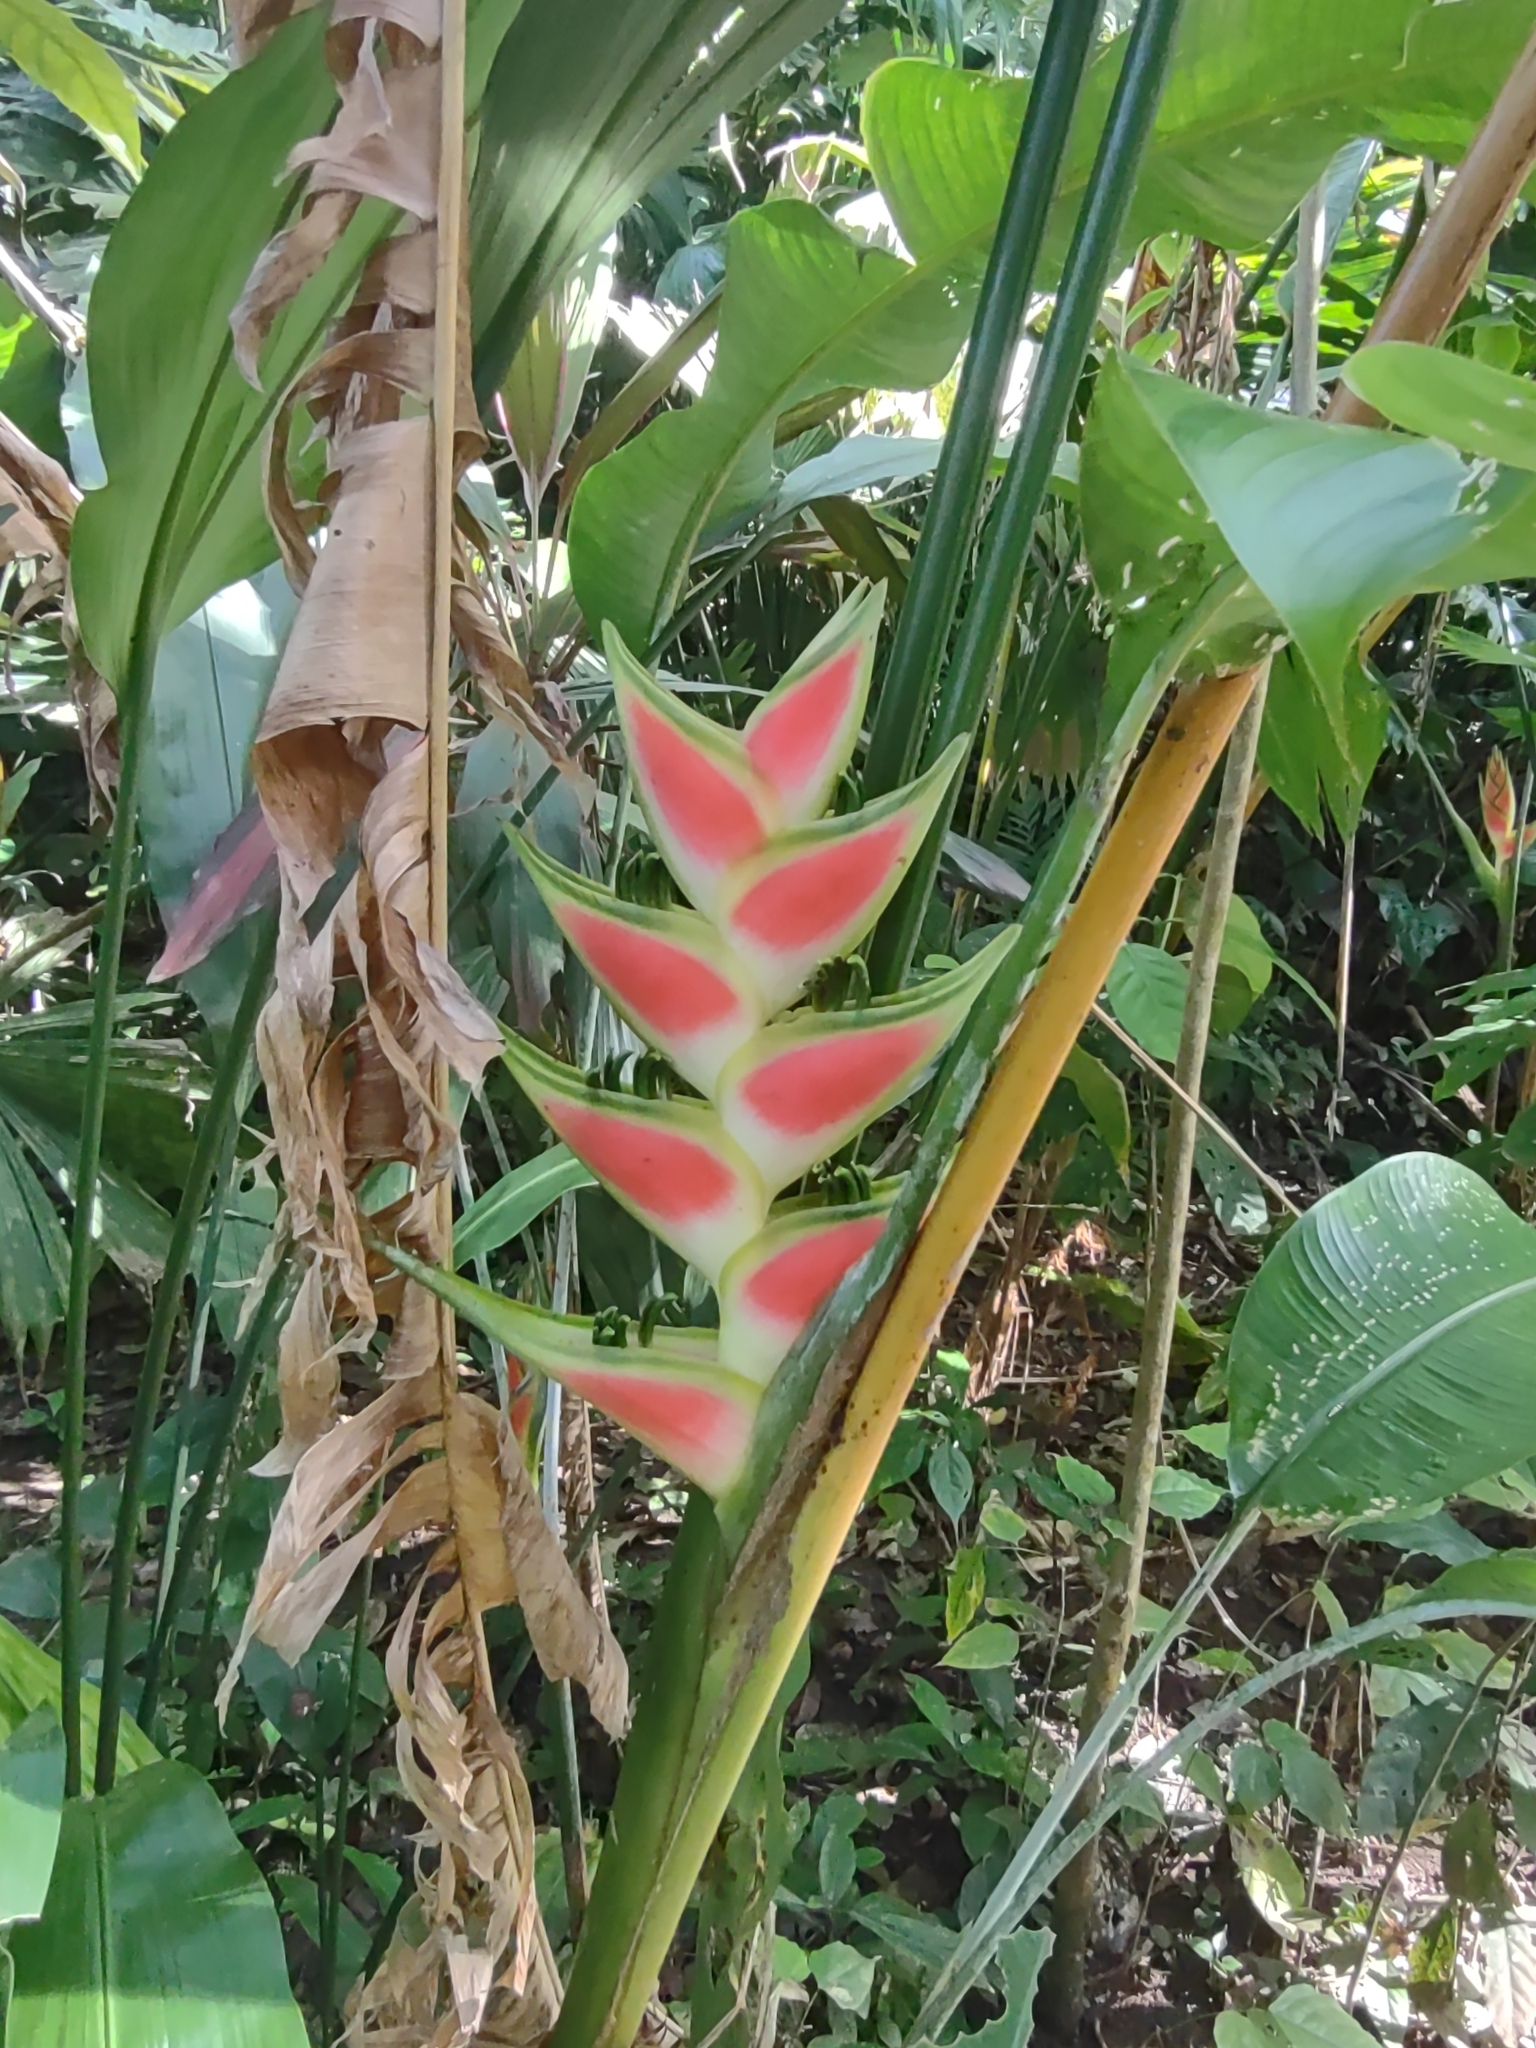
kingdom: Plantae
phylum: Tracheophyta
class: Liliopsida
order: Zingiberales
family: Heliconiaceae
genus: Heliconia
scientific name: Heliconia wagneriana
